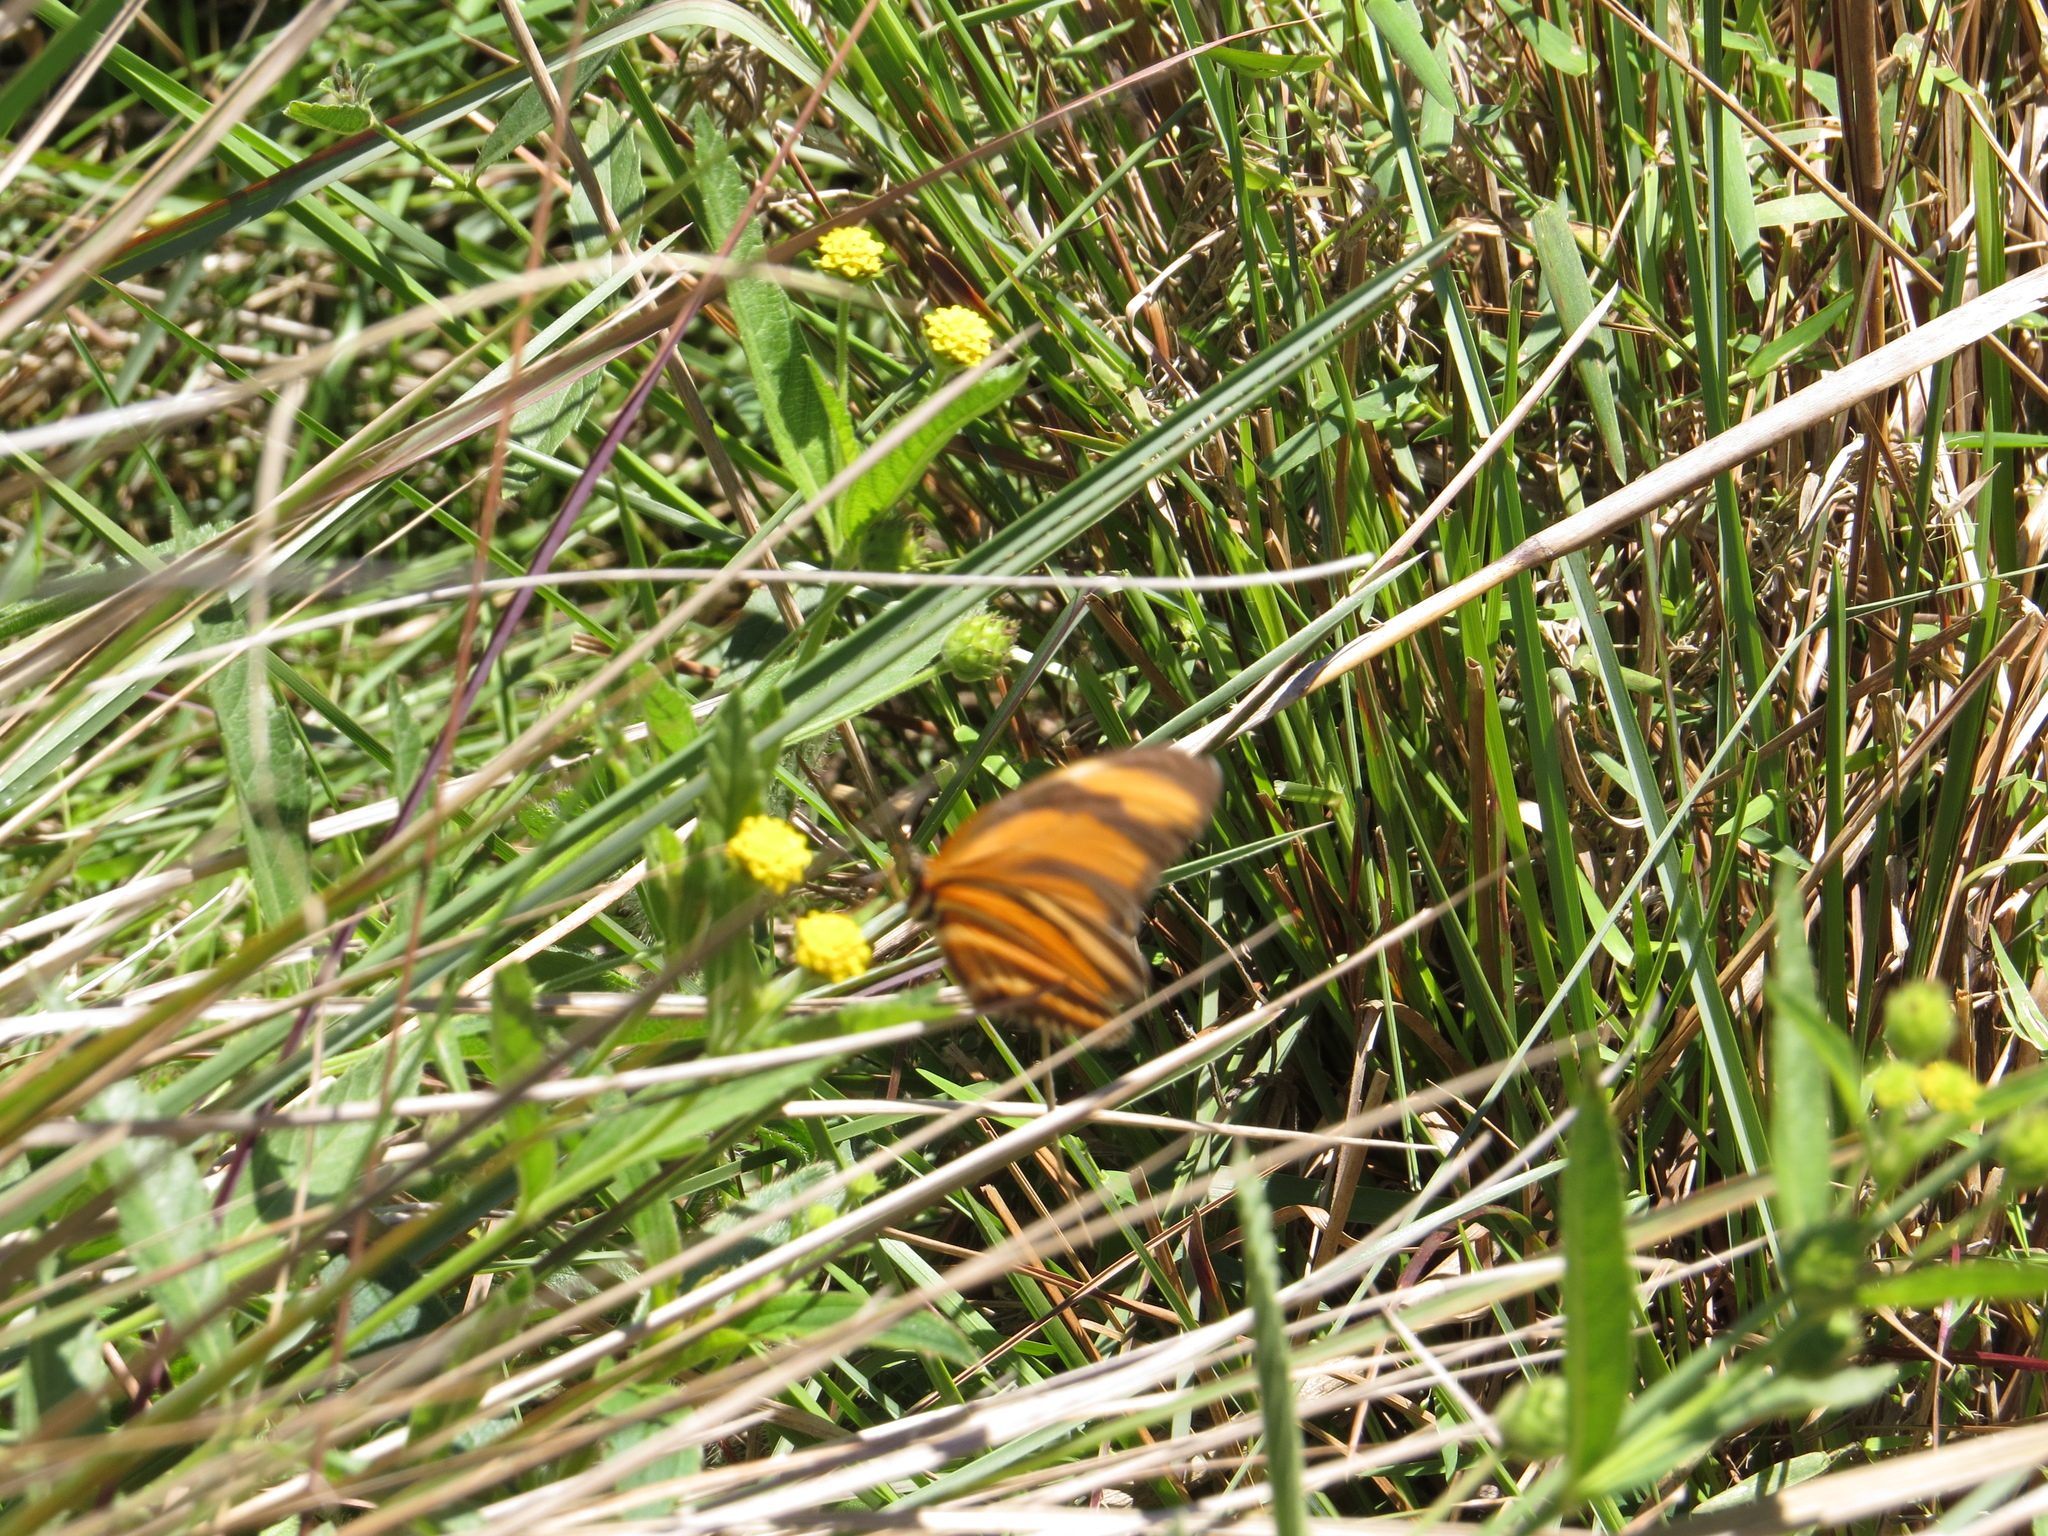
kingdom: Animalia
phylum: Arthropoda
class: Insecta
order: Lepidoptera
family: Nymphalidae
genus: Dryadula
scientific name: Dryadula phaetusa
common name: Banded orange heliconian
